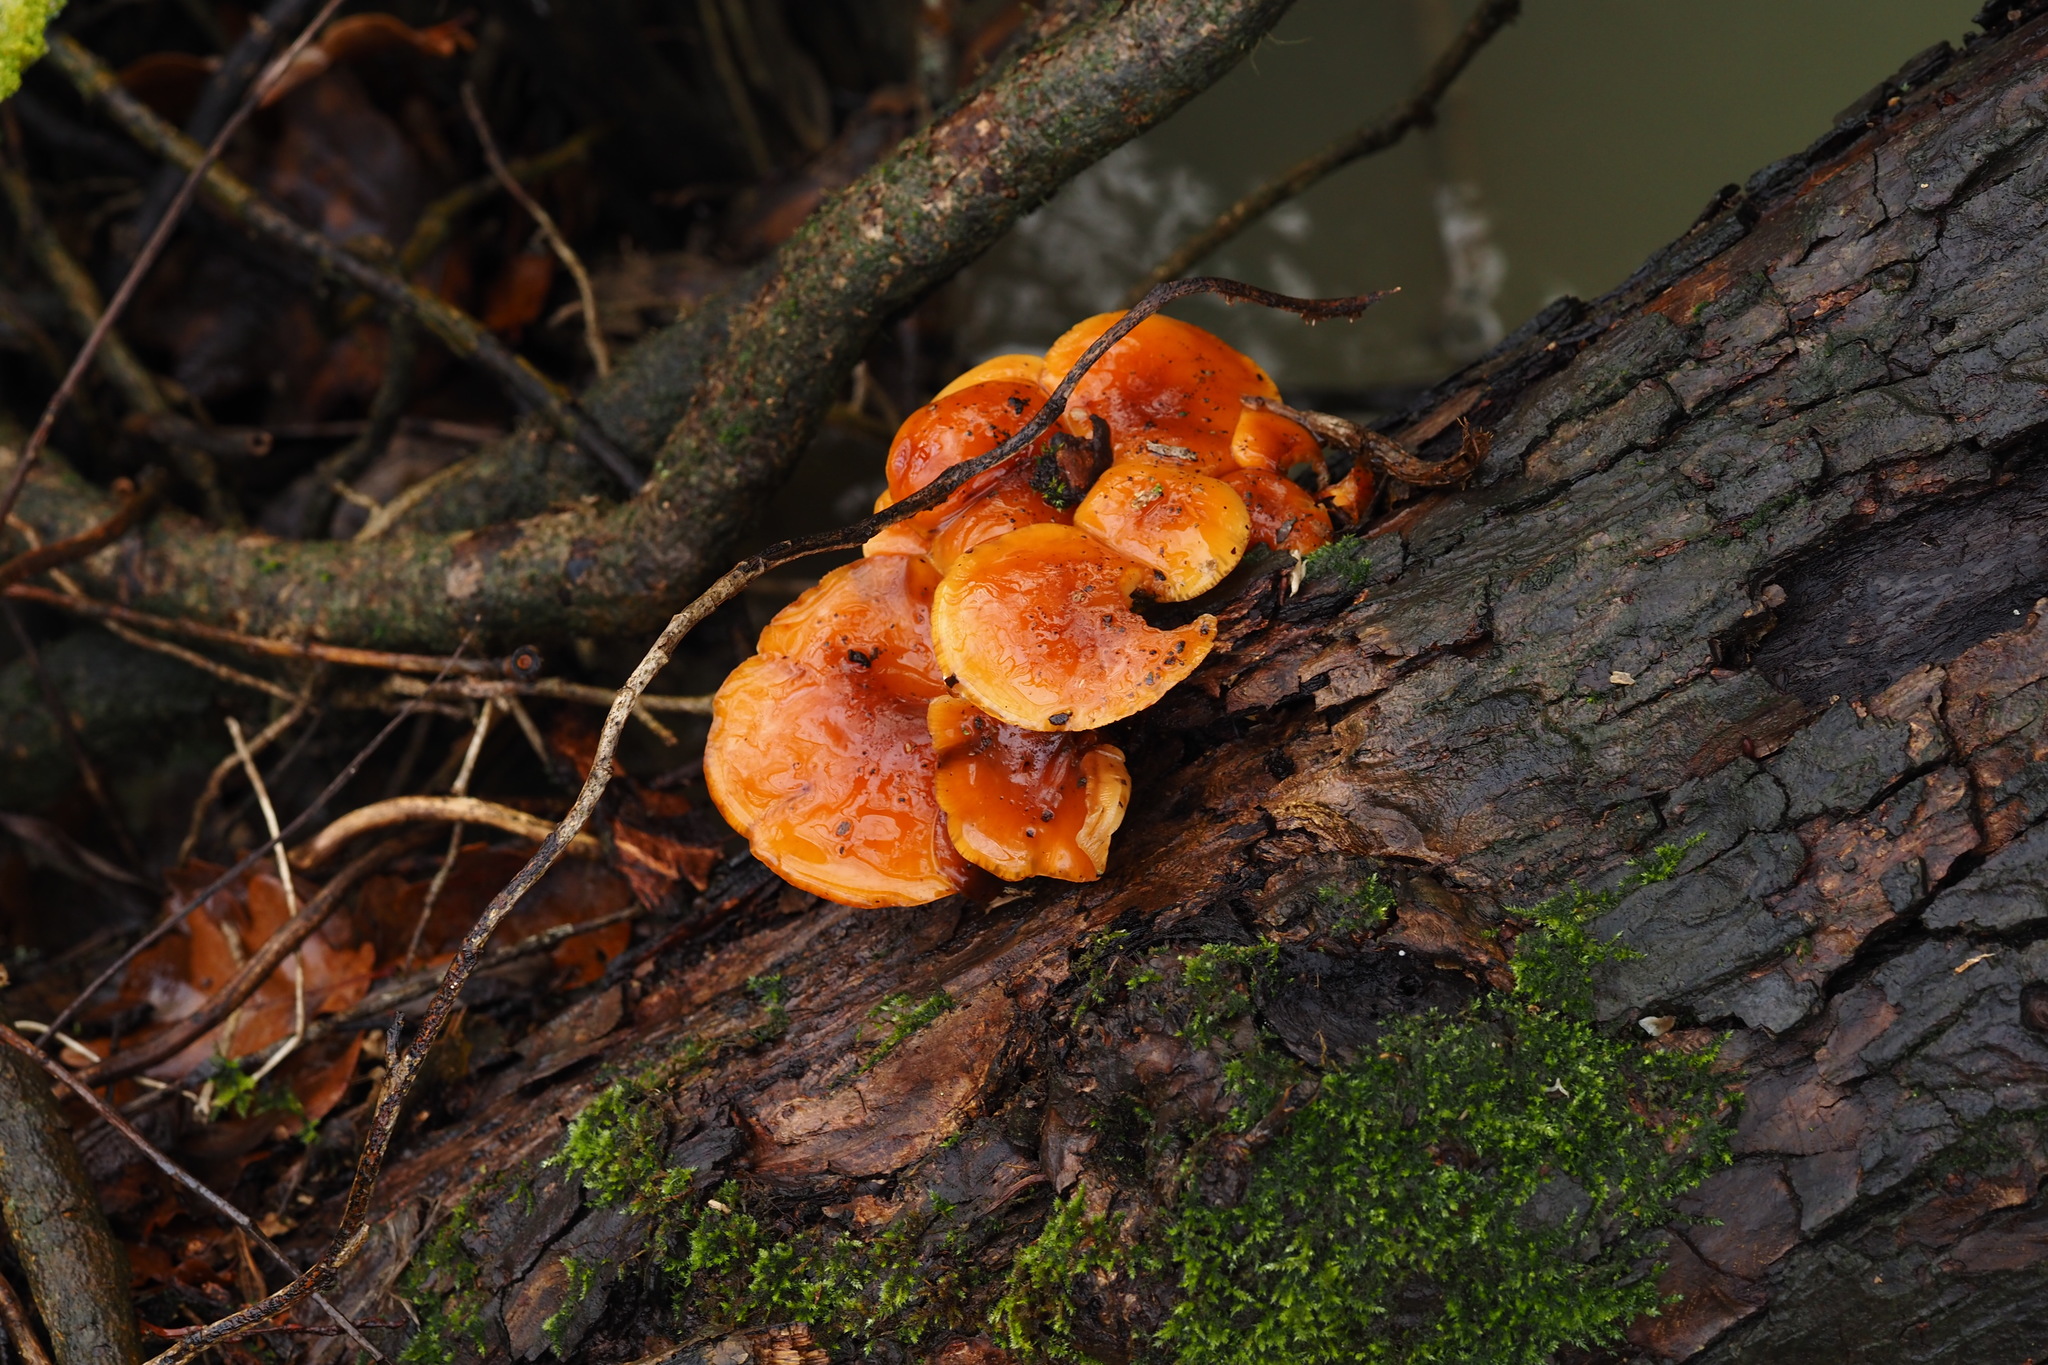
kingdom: Fungi
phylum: Basidiomycota
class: Agaricomycetes
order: Agaricales
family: Physalacriaceae
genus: Flammulina
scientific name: Flammulina
